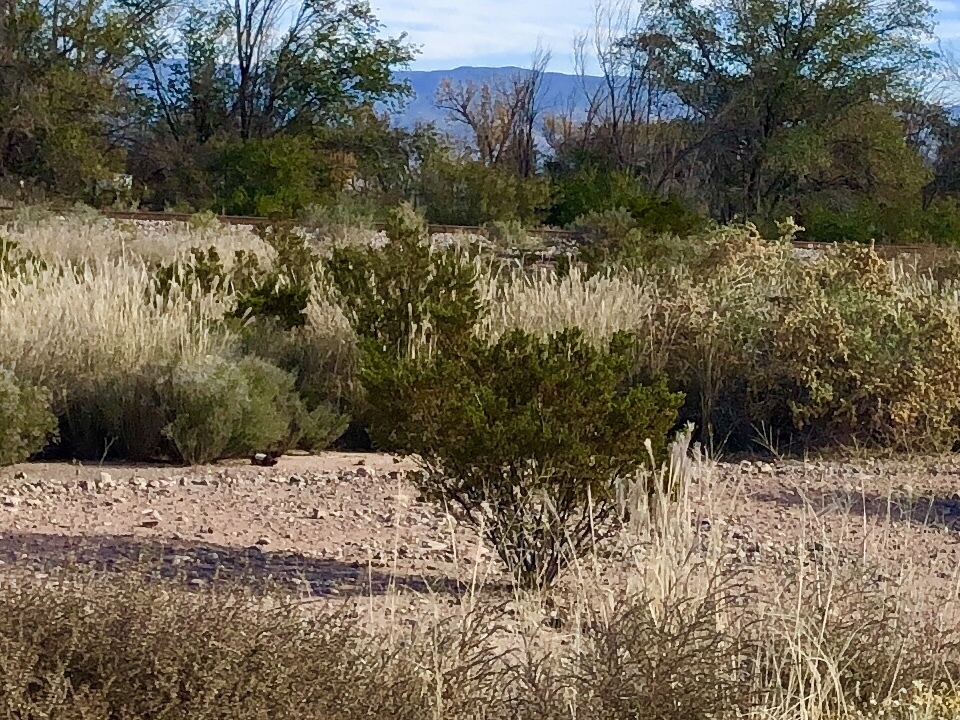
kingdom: Plantae
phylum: Tracheophyta
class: Magnoliopsida
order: Zygophyllales
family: Zygophyllaceae
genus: Larrea
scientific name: Larrea tridentata
